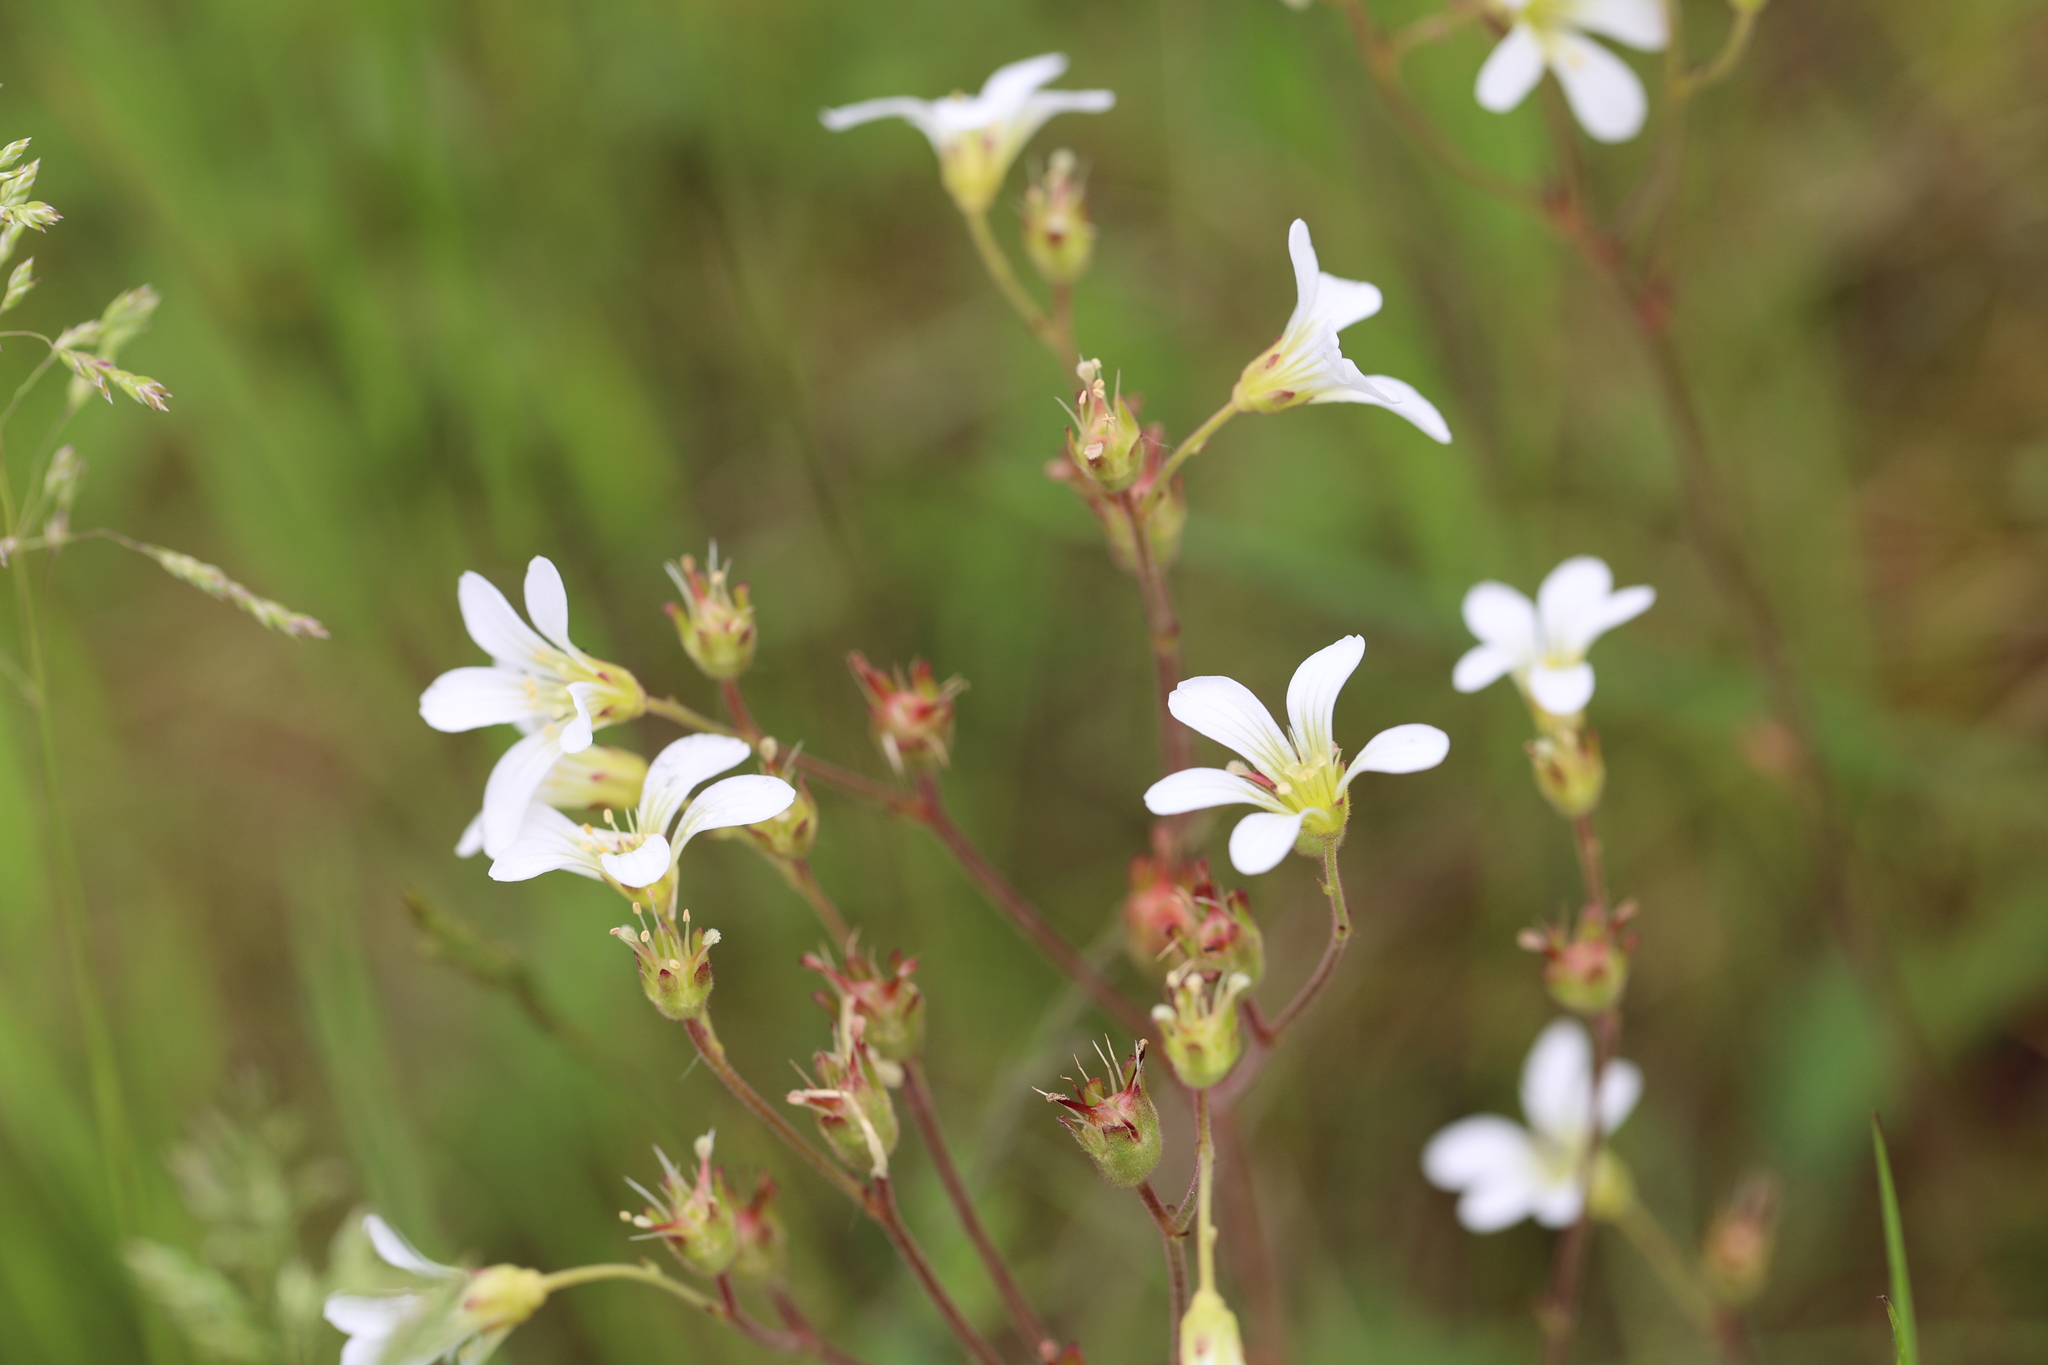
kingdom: Plantae
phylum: Tracheophyta
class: Magnoliopsida
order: Saxifragales
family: Saxifragaceae
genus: Saxifraga
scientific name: Saxifraga granulata
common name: Meadow saxifrage
